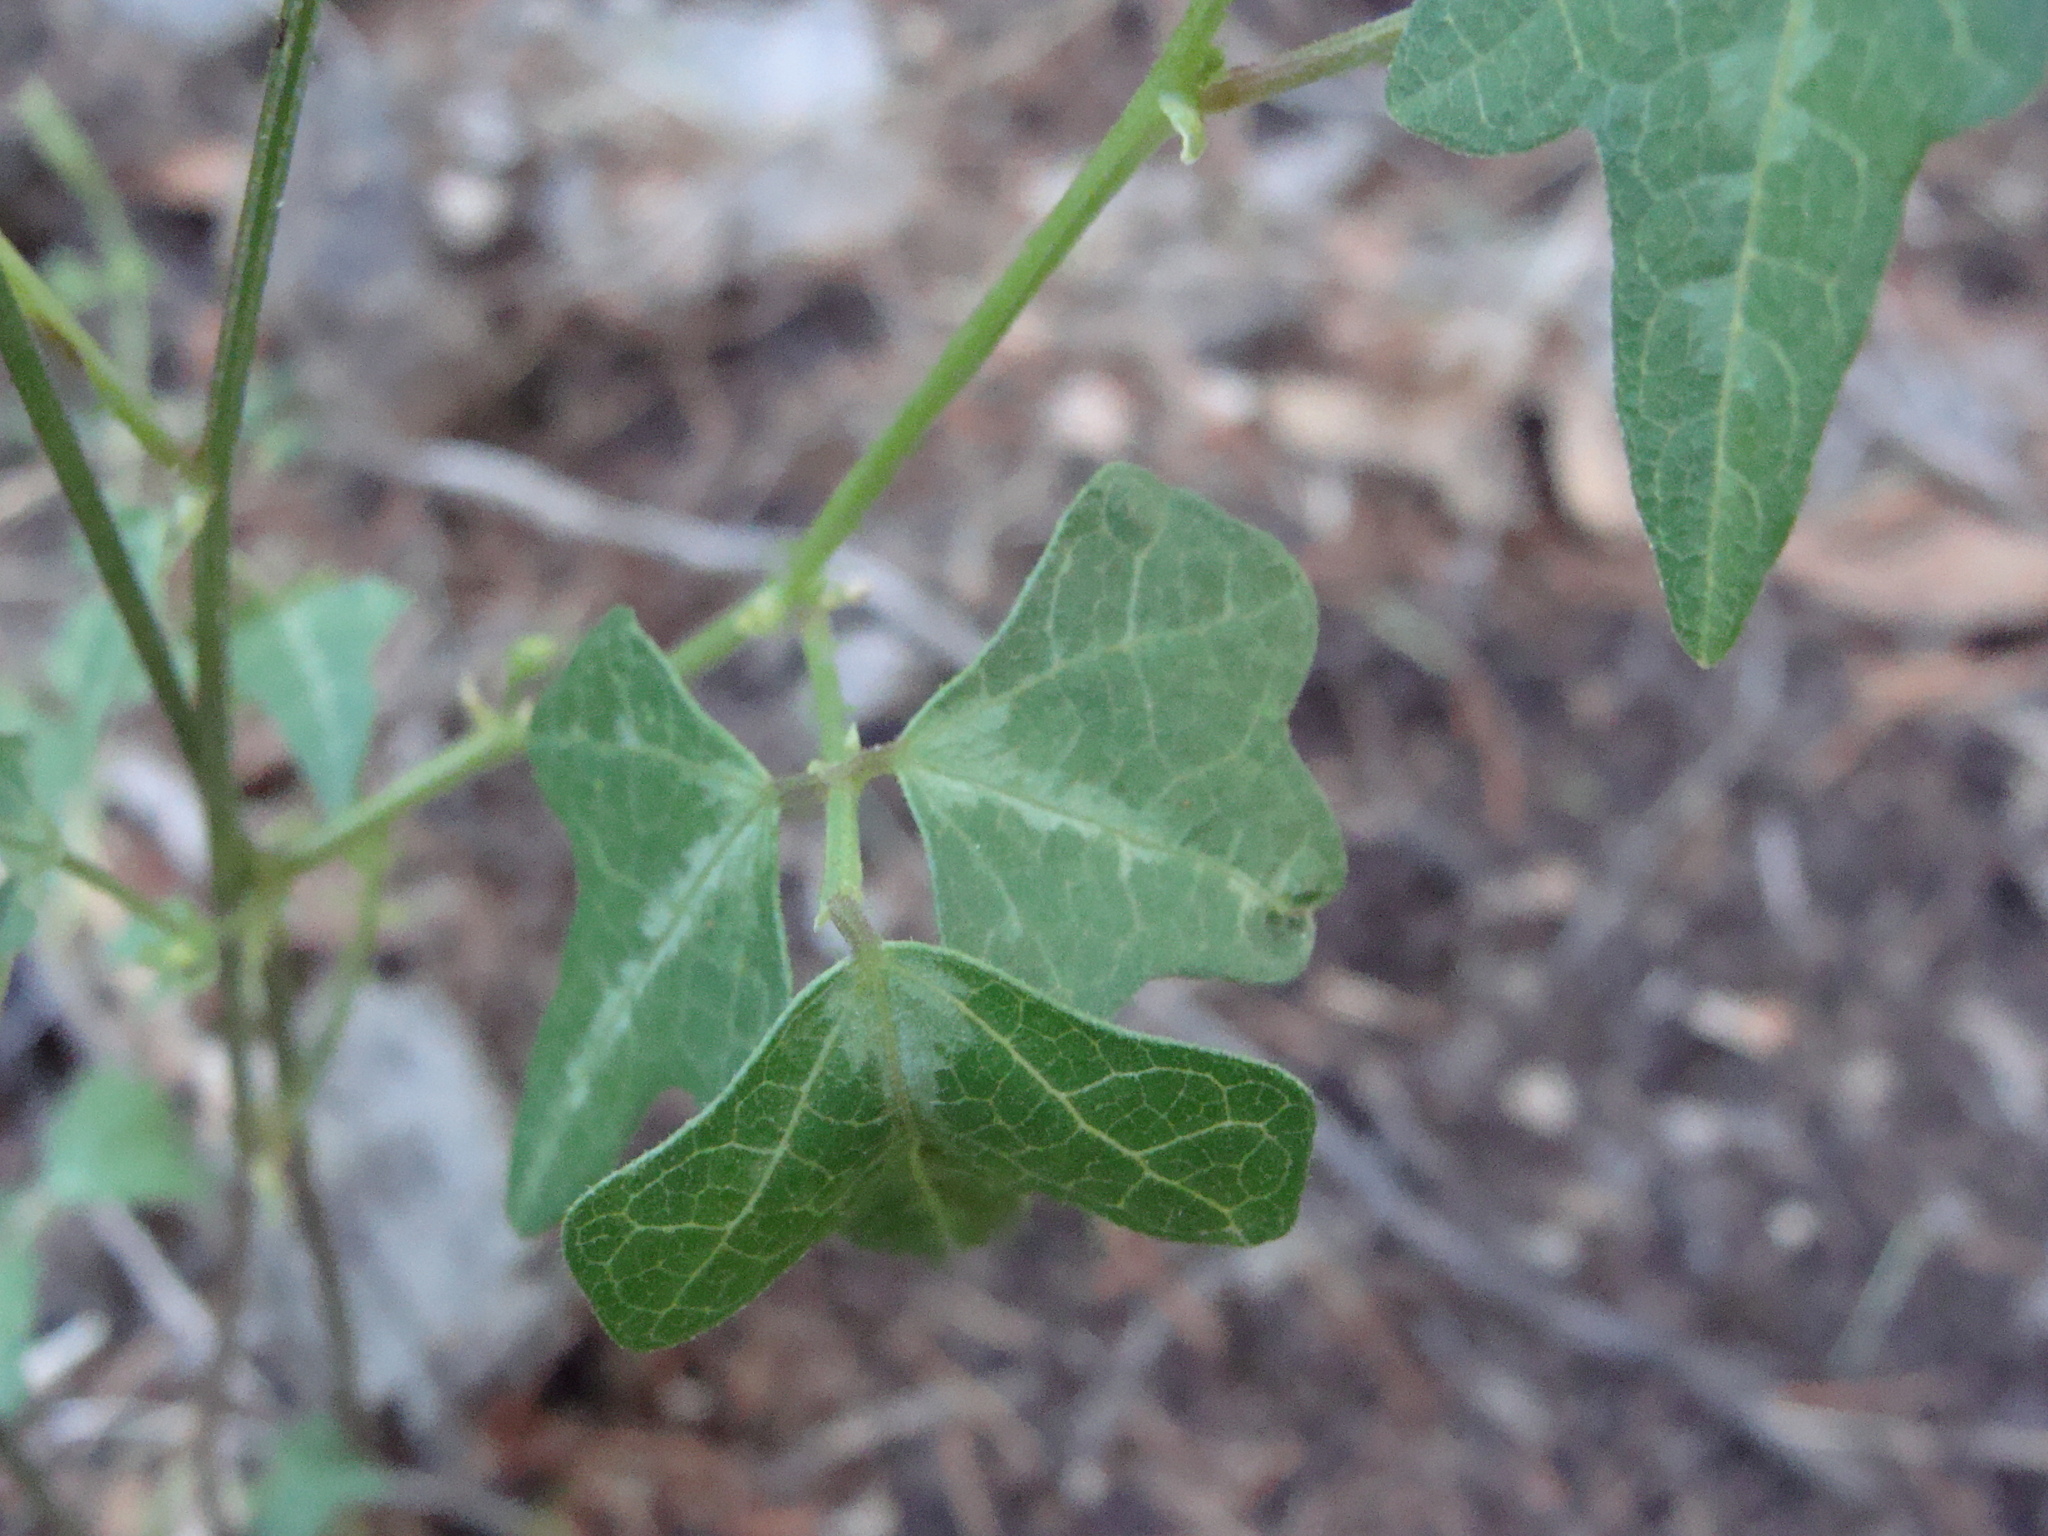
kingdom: Plantae
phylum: Tracheophyta
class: Magnoliopsida
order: Fabales
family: Fabaceae
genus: Phaseolus
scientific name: Phaseolus pedicellatus
